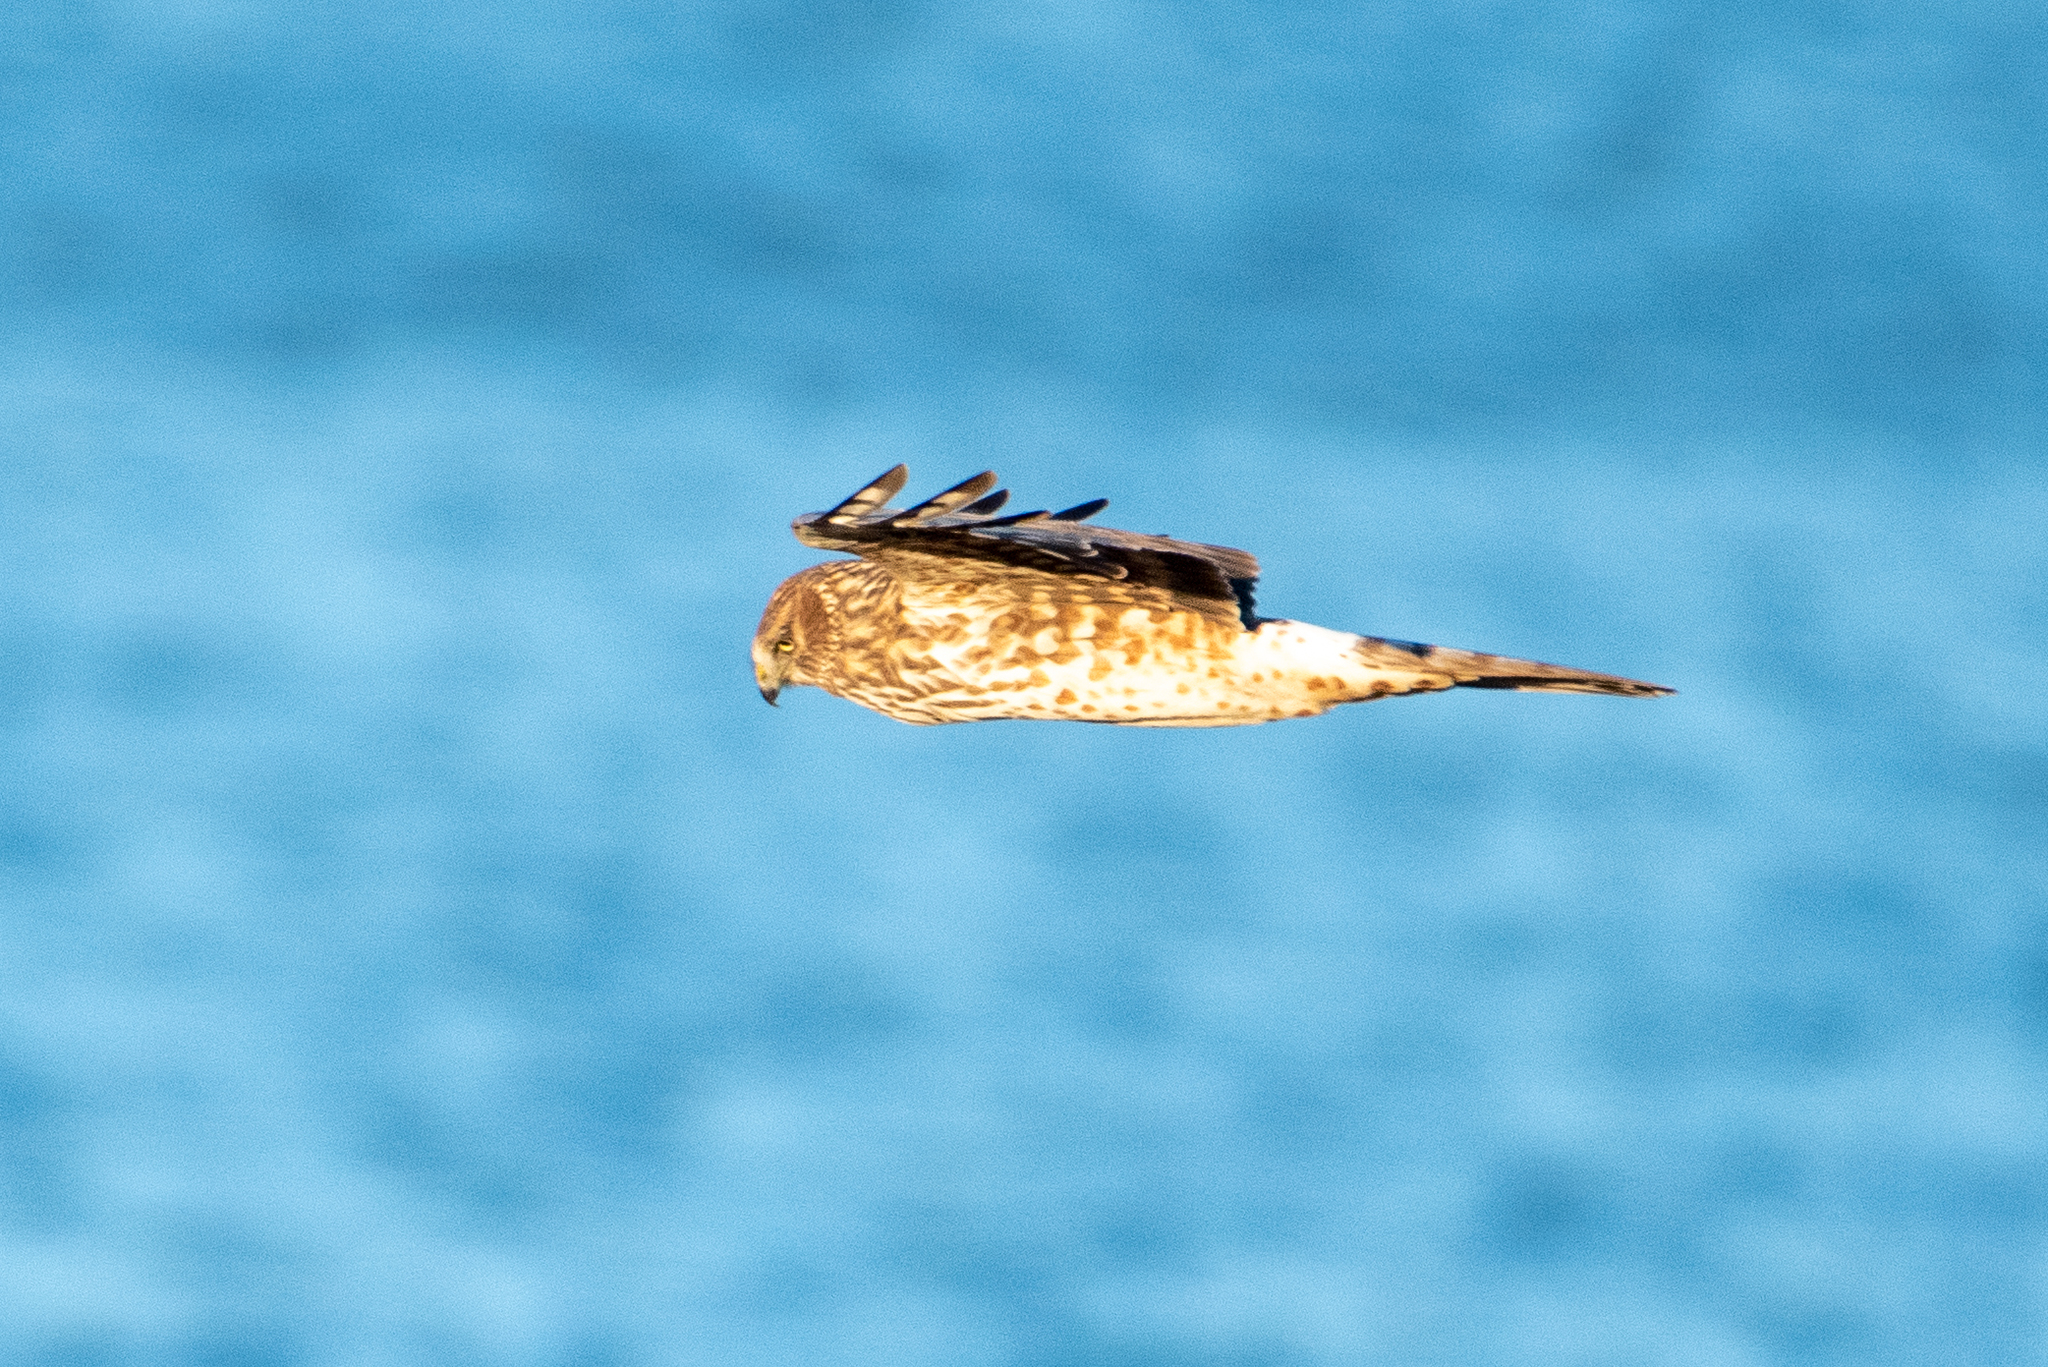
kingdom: Animalia
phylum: Chordata
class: Aves
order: Accipitriformes
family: Accipitridae
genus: Circus
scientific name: Circus cyaneus
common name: Hen harrier
